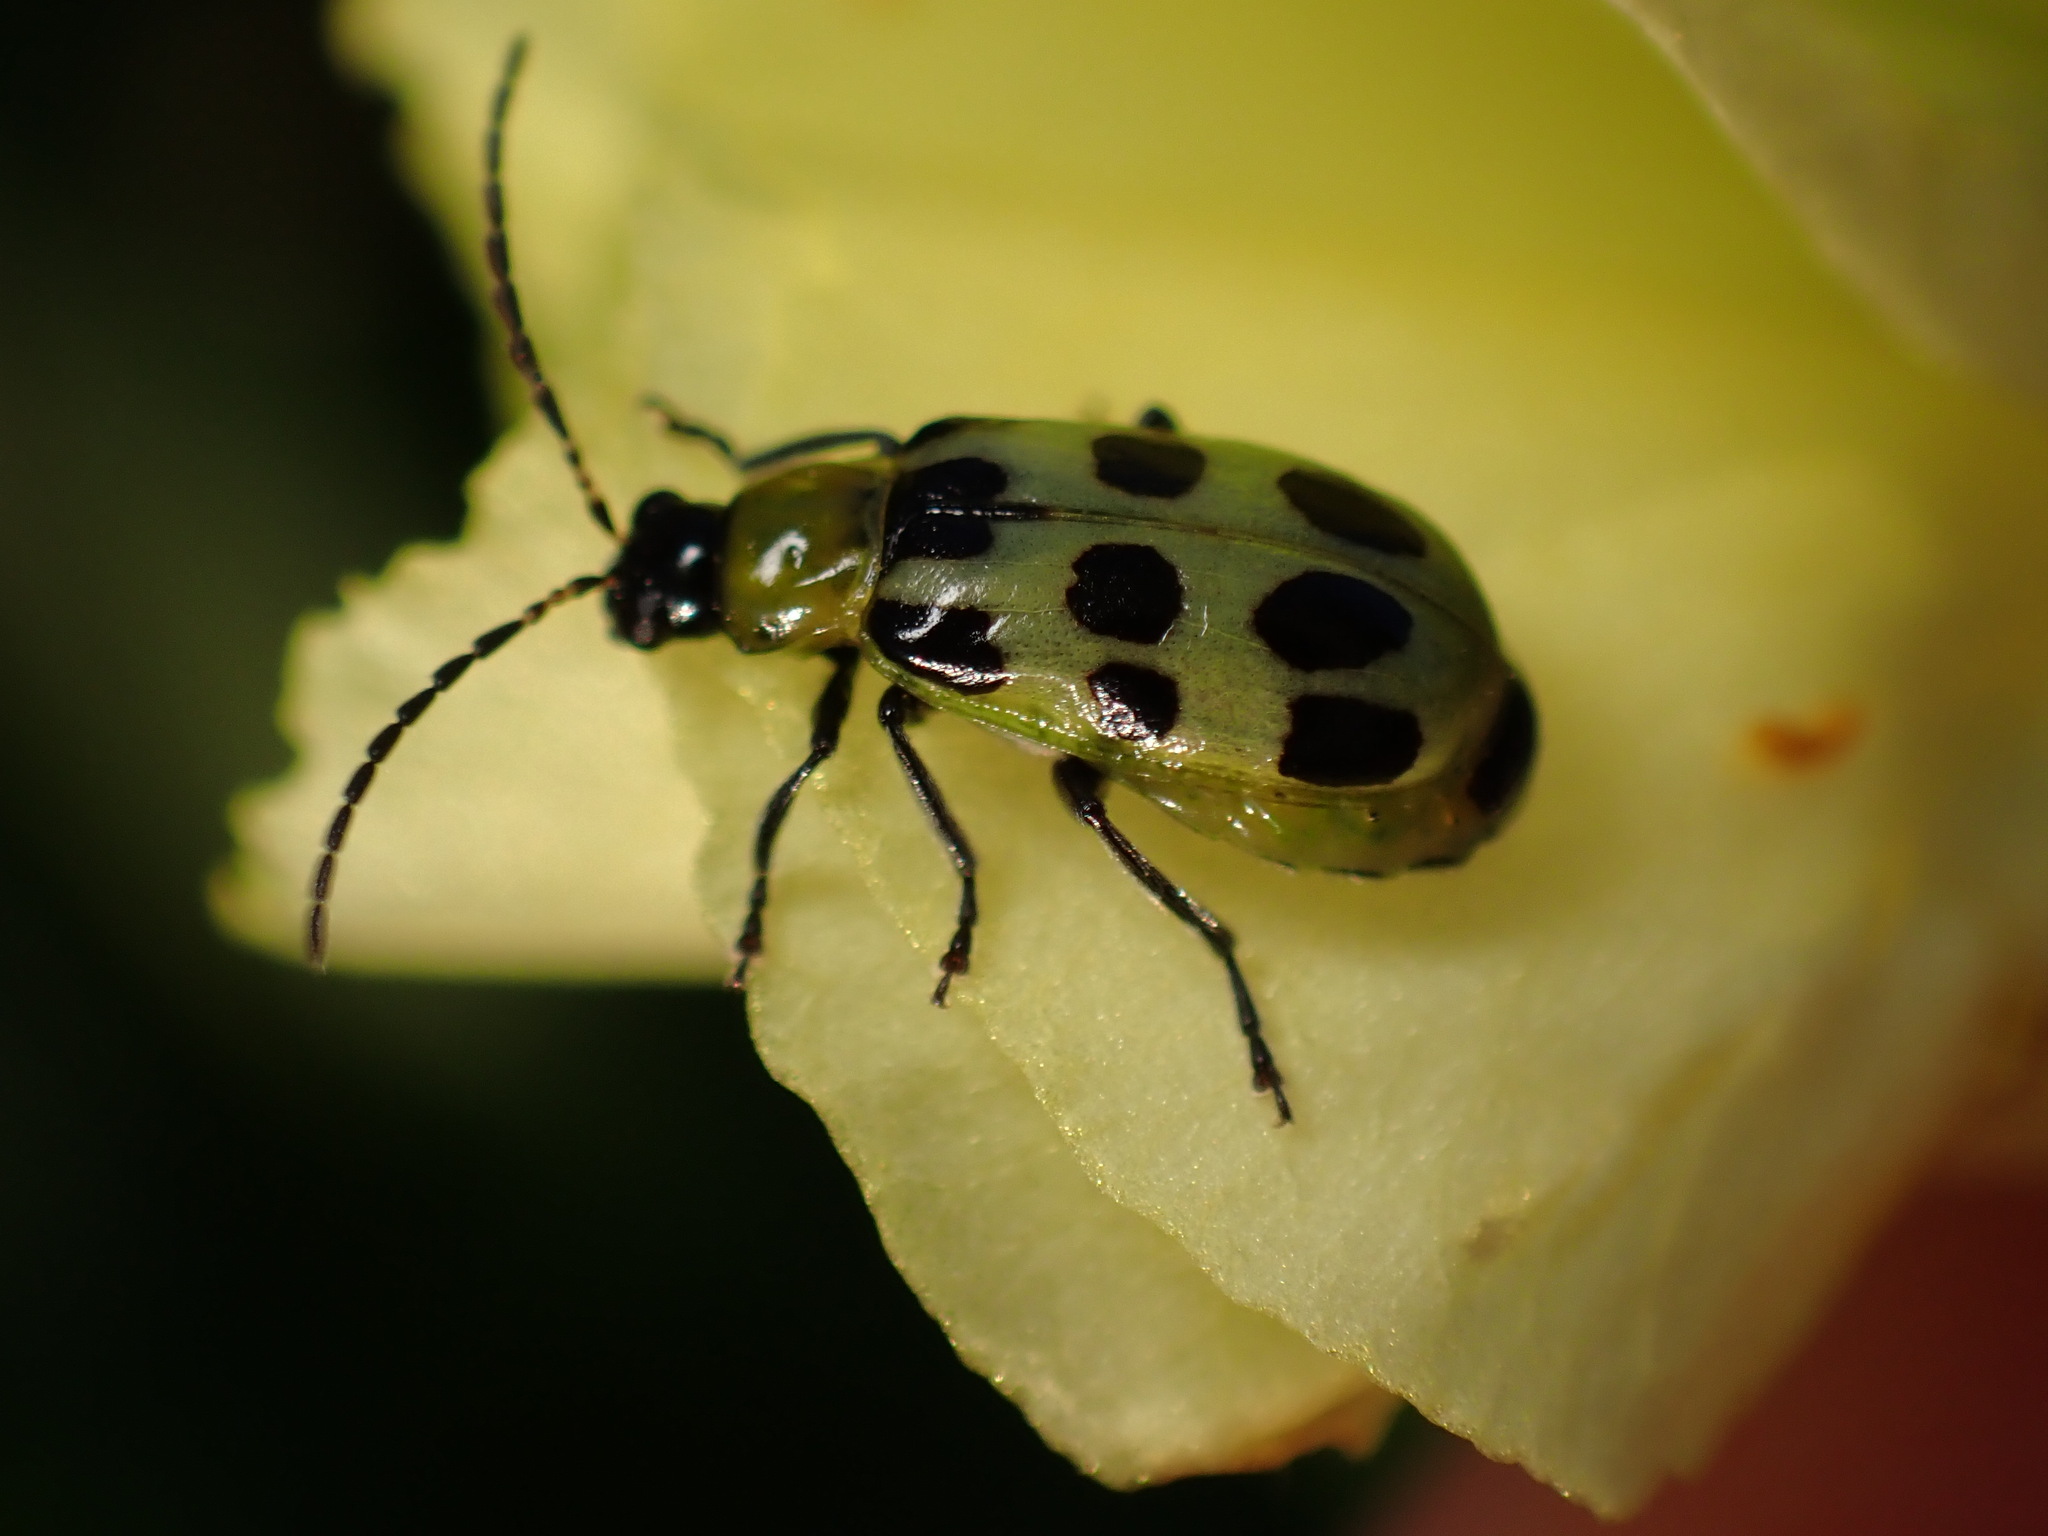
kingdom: Animalia
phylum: Arthropoda
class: Insecta
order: Coleoptera
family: Chrysomelidae
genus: Diabrotica
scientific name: Diabrotica undecimpunctata
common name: Spotted cucumber beetle
